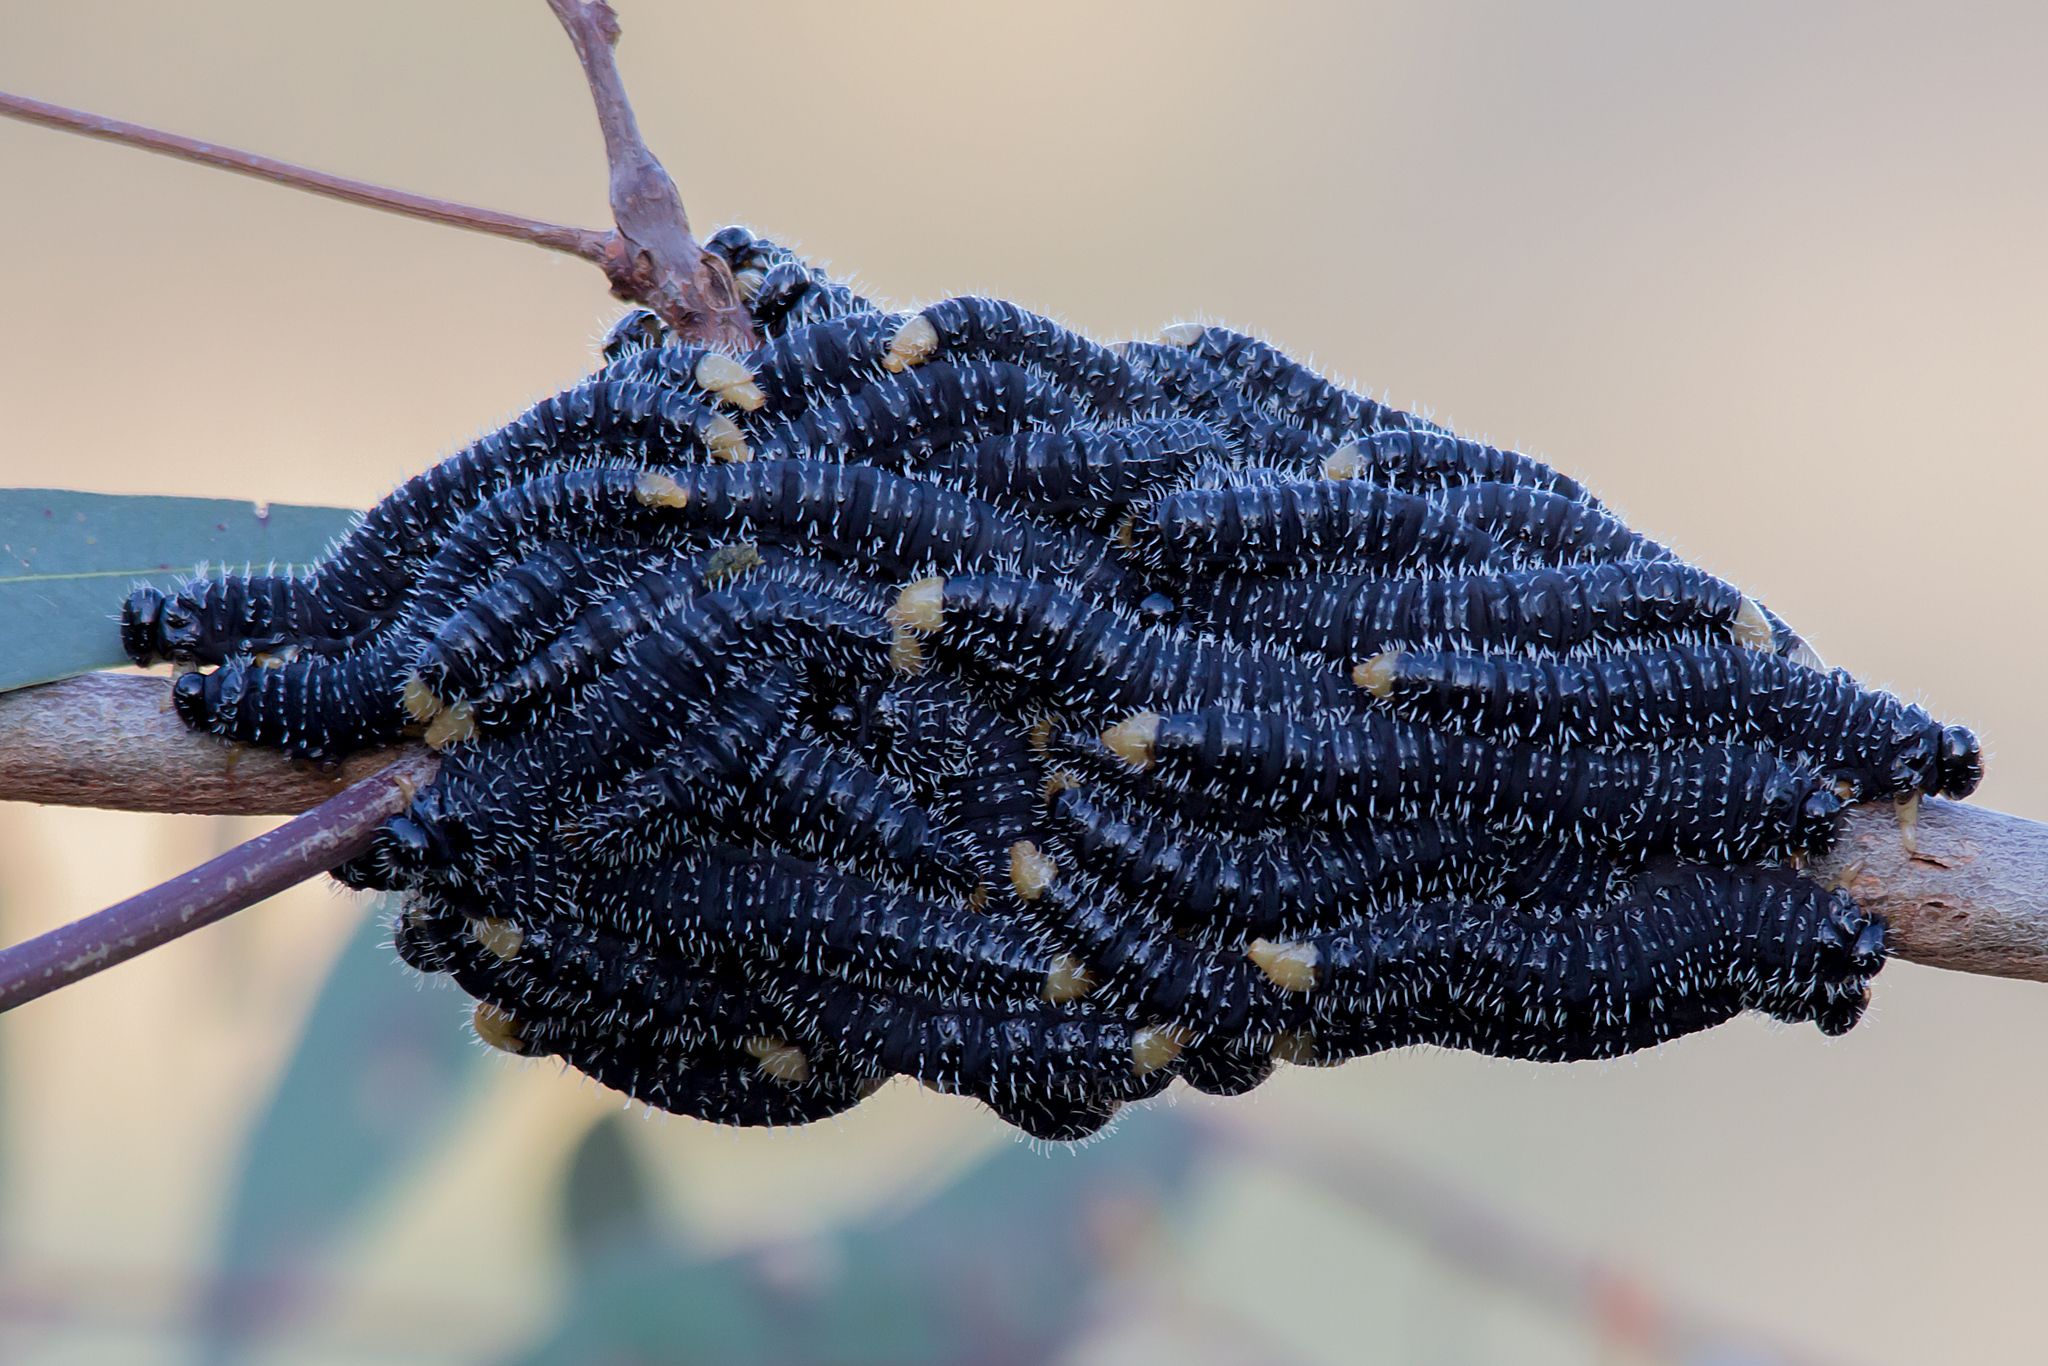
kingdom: Animalia
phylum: Arthropoda
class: Insecta
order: Hymenoptera
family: Pergidae
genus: Perga
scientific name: Perga affinis
